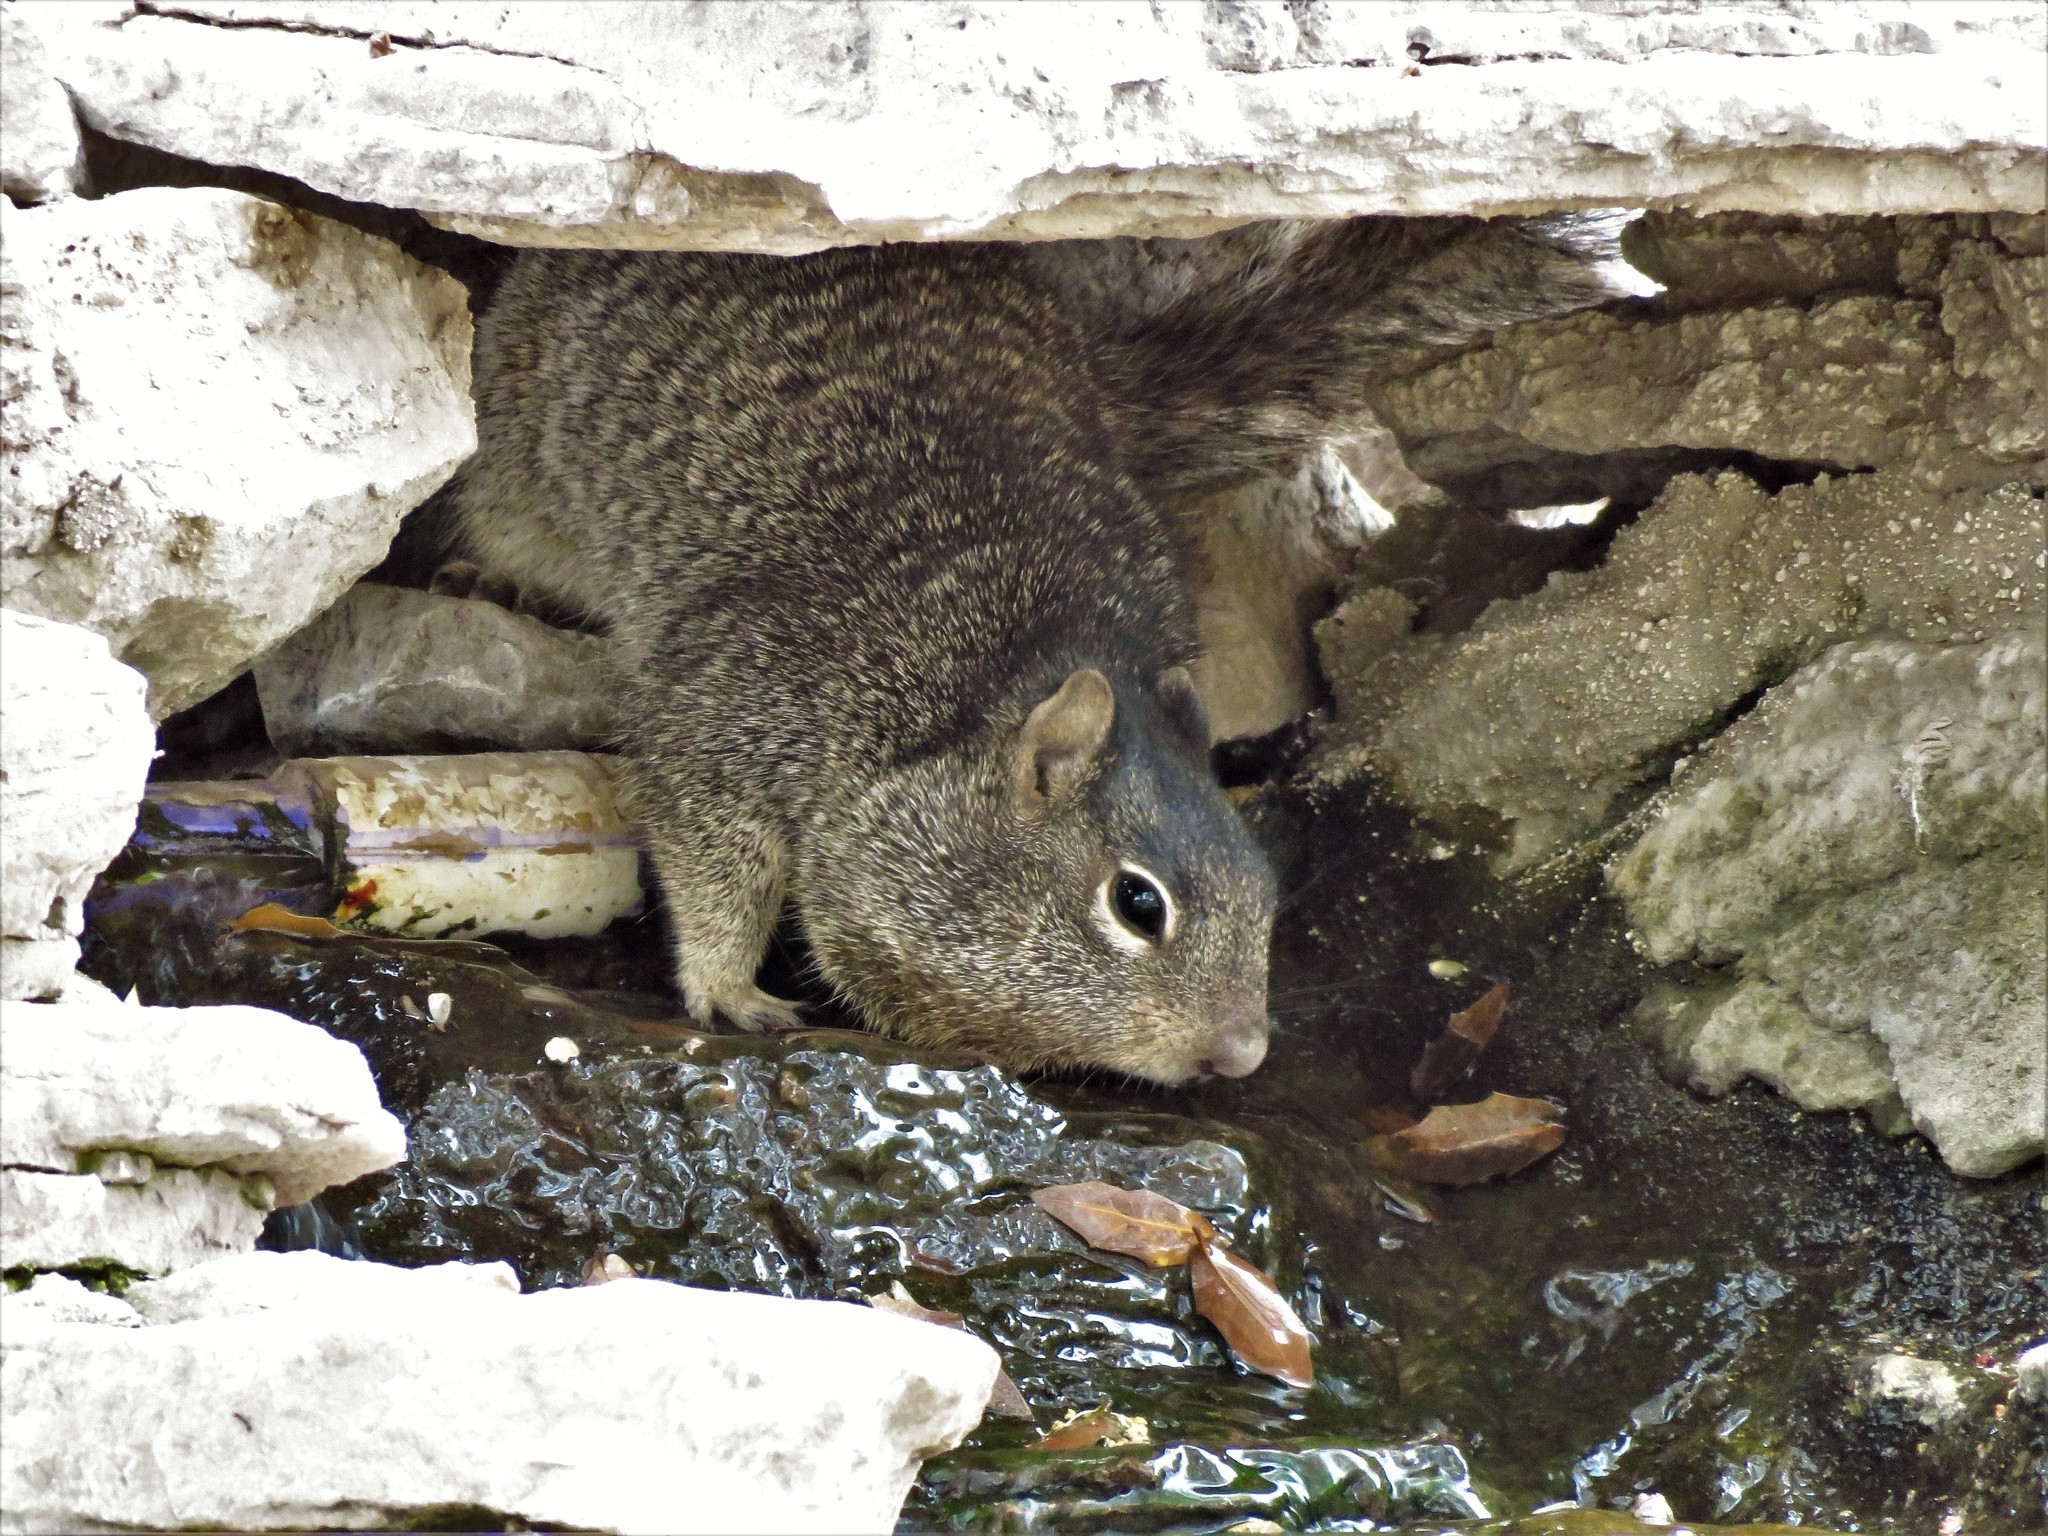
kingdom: Animalia
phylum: Chordata
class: Mammalia
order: Rodentia
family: Sciuridae
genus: Otospermophilus
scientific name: Otospermophilus variegatus
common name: Rock squirrel
